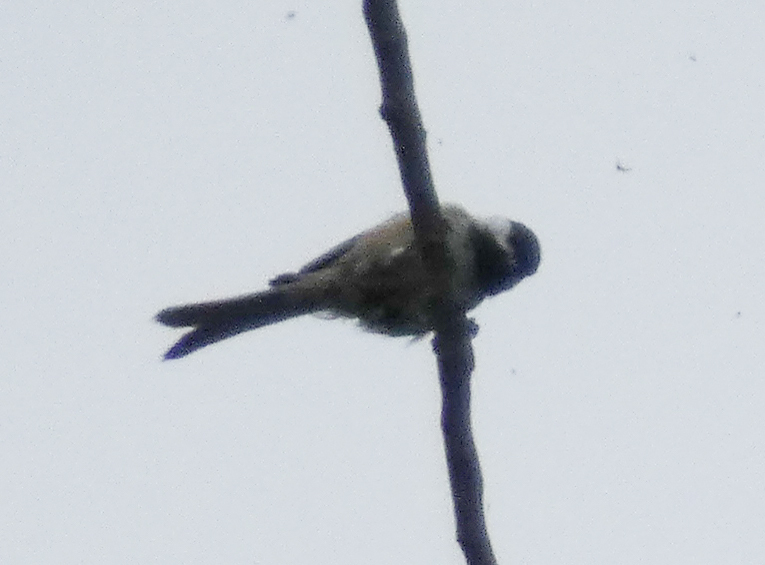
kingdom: Animalia
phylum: Chordata
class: Aves
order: Passeriformes
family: Paridae
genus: Poecile
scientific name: Poecile atricapillus
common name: Black-capped chickadee
